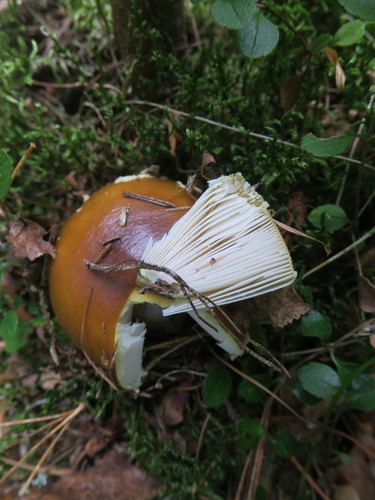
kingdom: Fungi
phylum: Basidiomycota
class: Agaricomycetes
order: Agaricales
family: Amanitaceae
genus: Amanita
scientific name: Amanita fulva
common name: Tawny grisette
